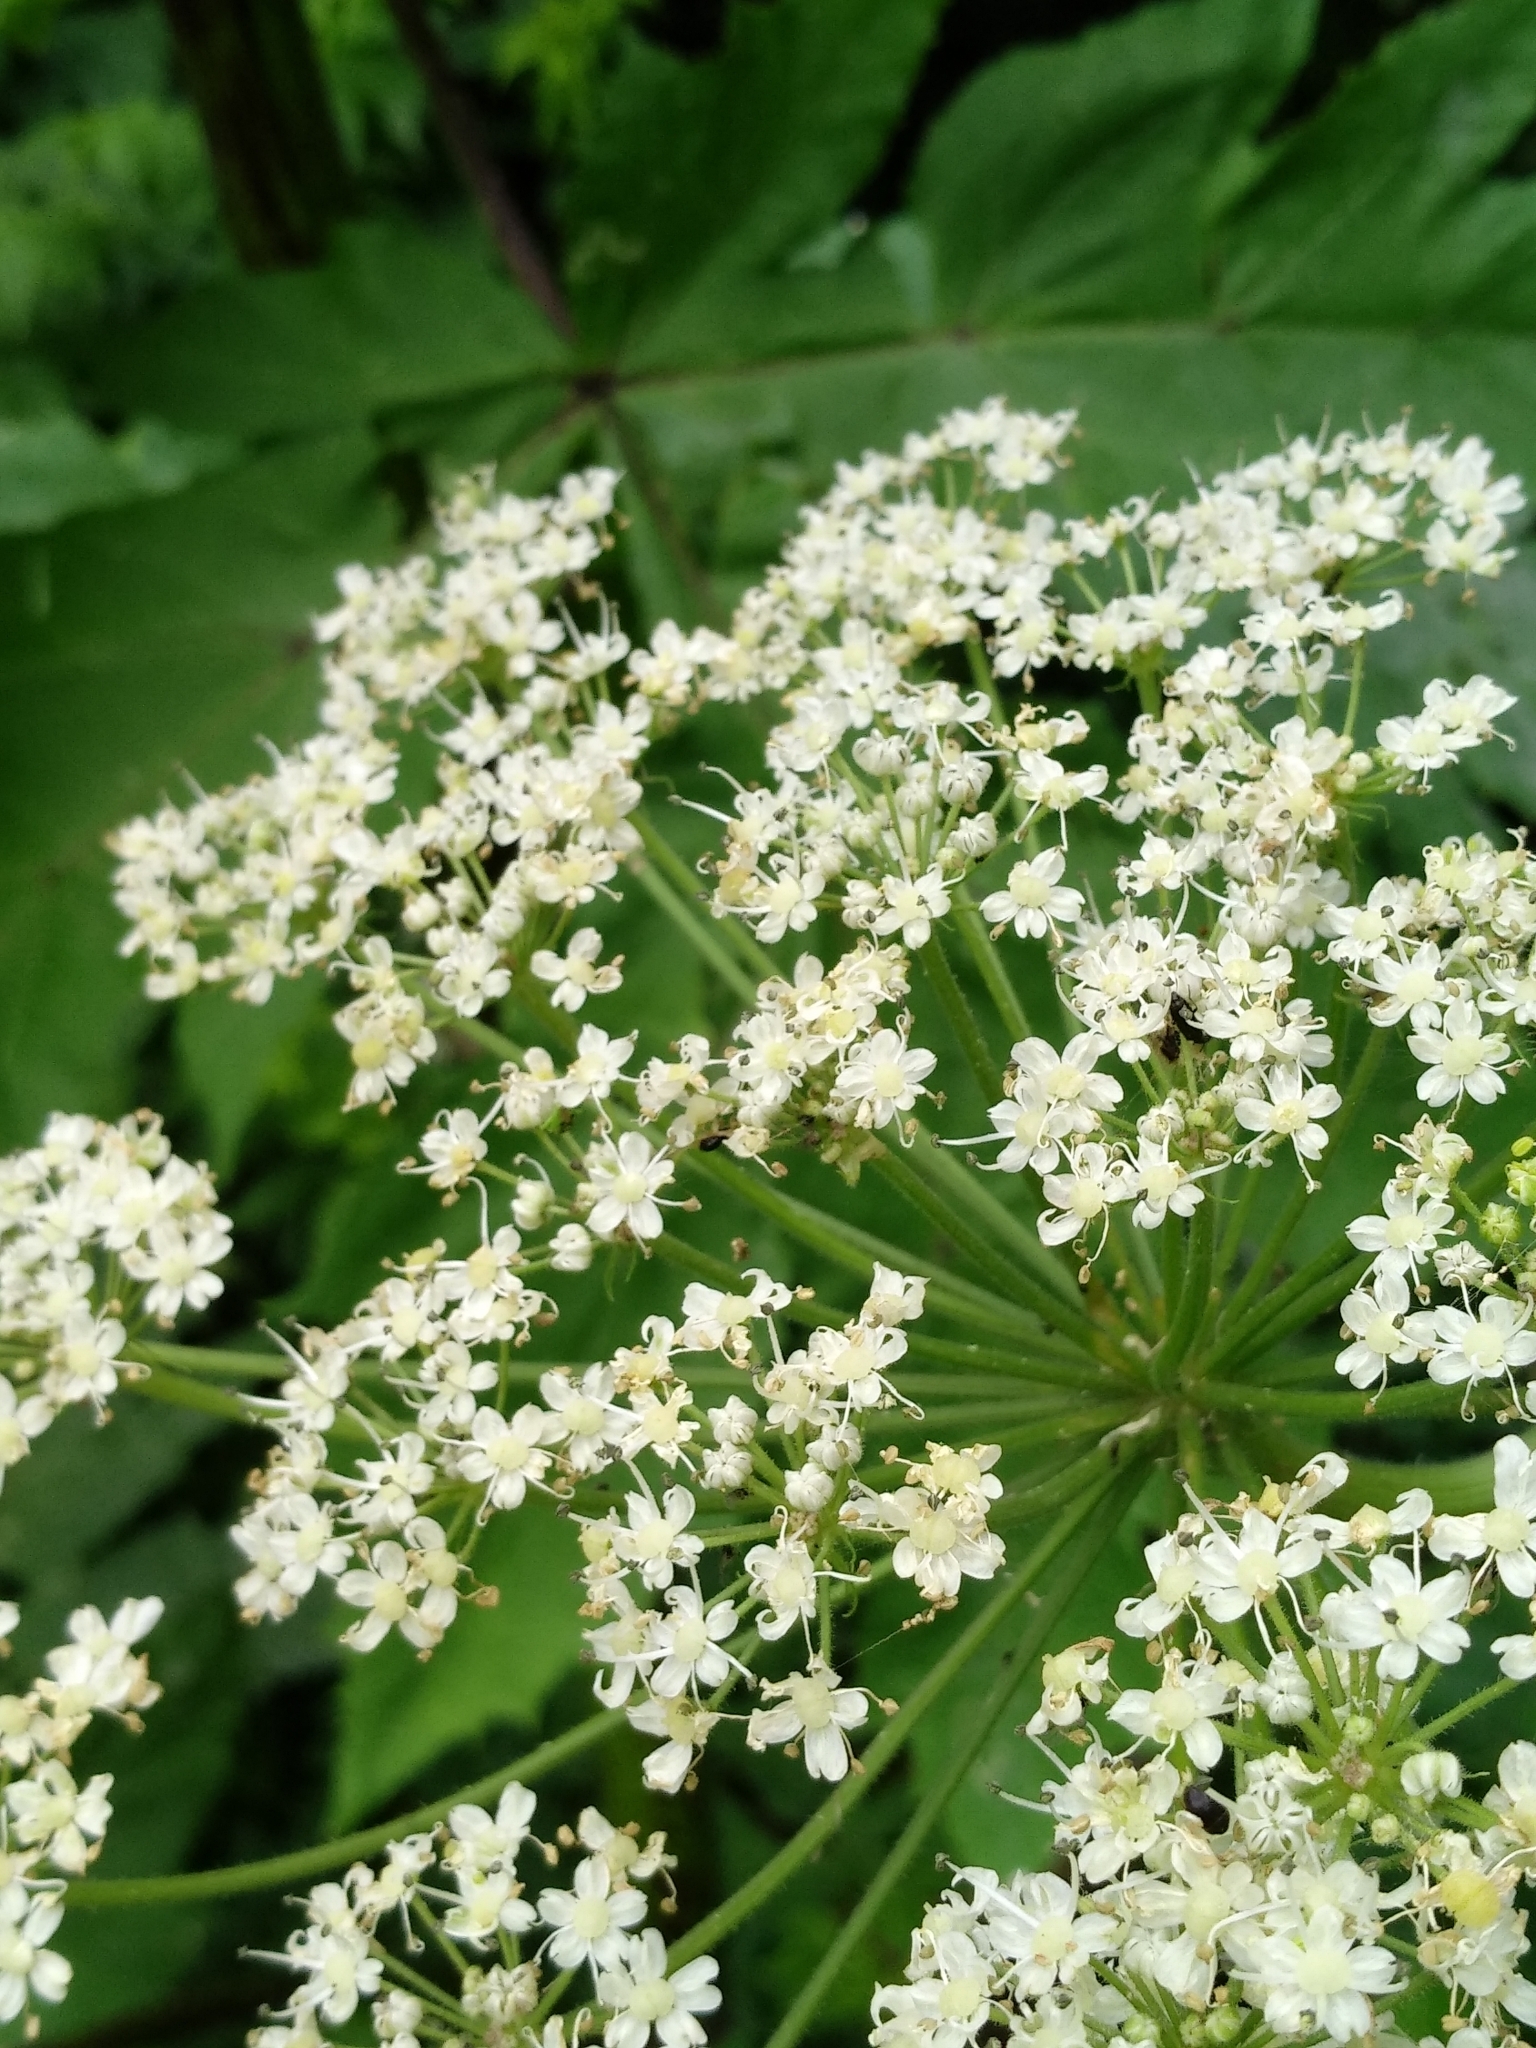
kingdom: Plantae
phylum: Tracheophyta
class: Magnoliopsida
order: Apiales
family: Apiaceae
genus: Heracleum
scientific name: Heracleum sosnowskyi
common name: Sosnowsky's hogweed
